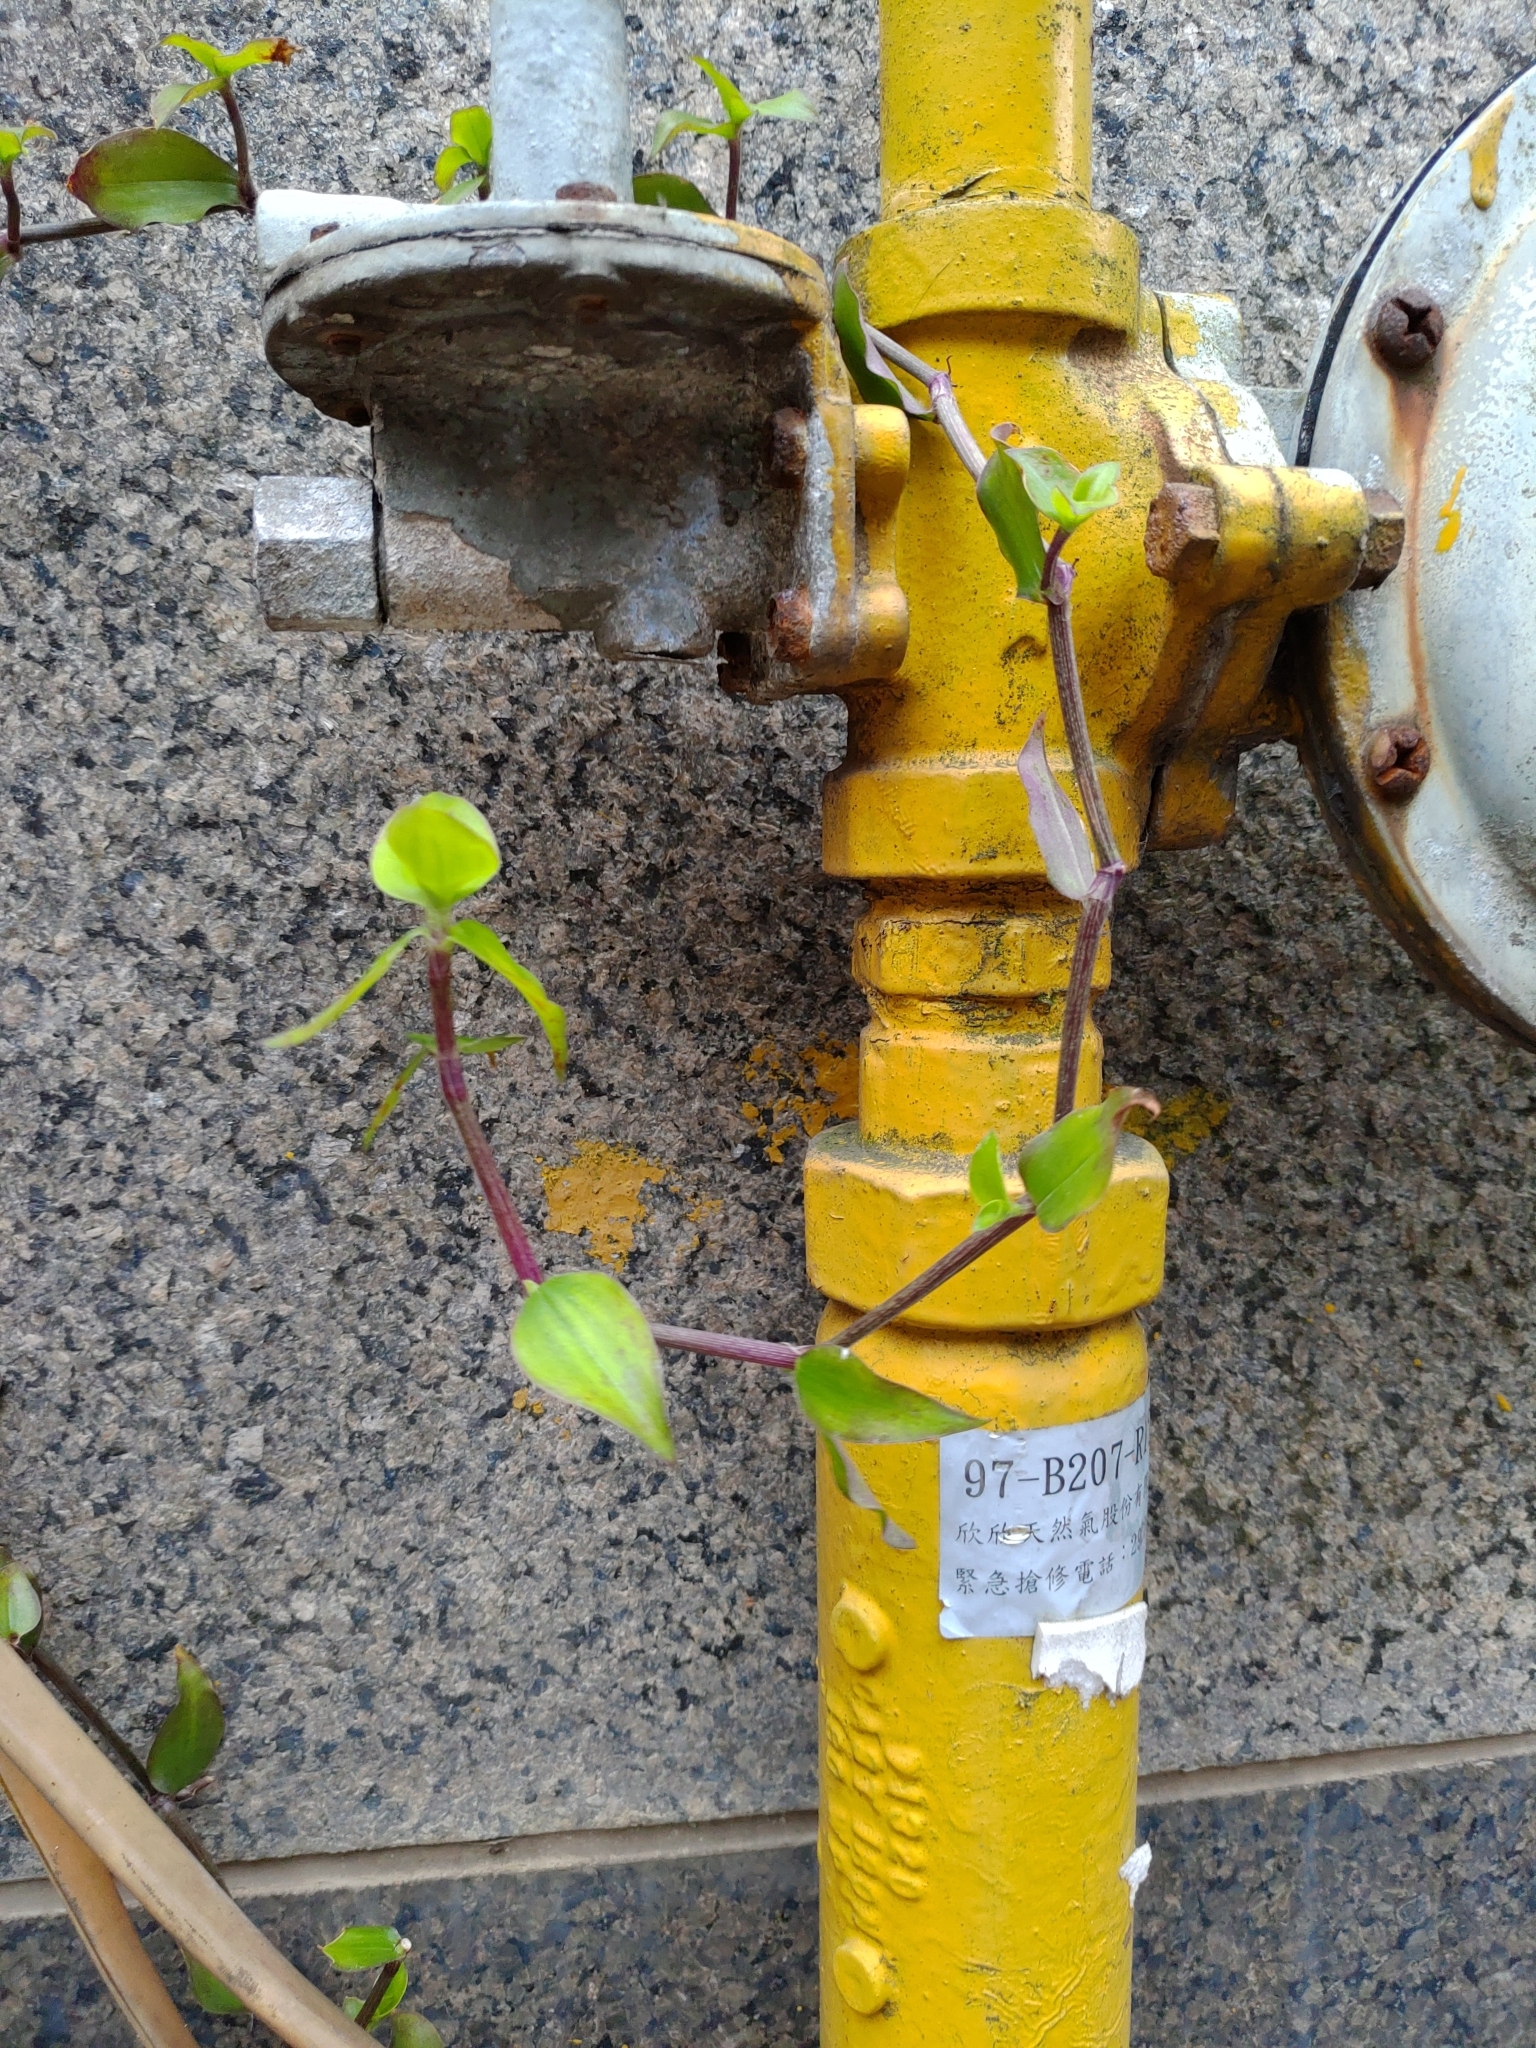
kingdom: Plantae
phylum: Tracheophyta
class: Liliopsida
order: Commelinales
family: Commelinaceae
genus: Callisia
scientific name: Callisia repens
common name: Creeping inchplant
